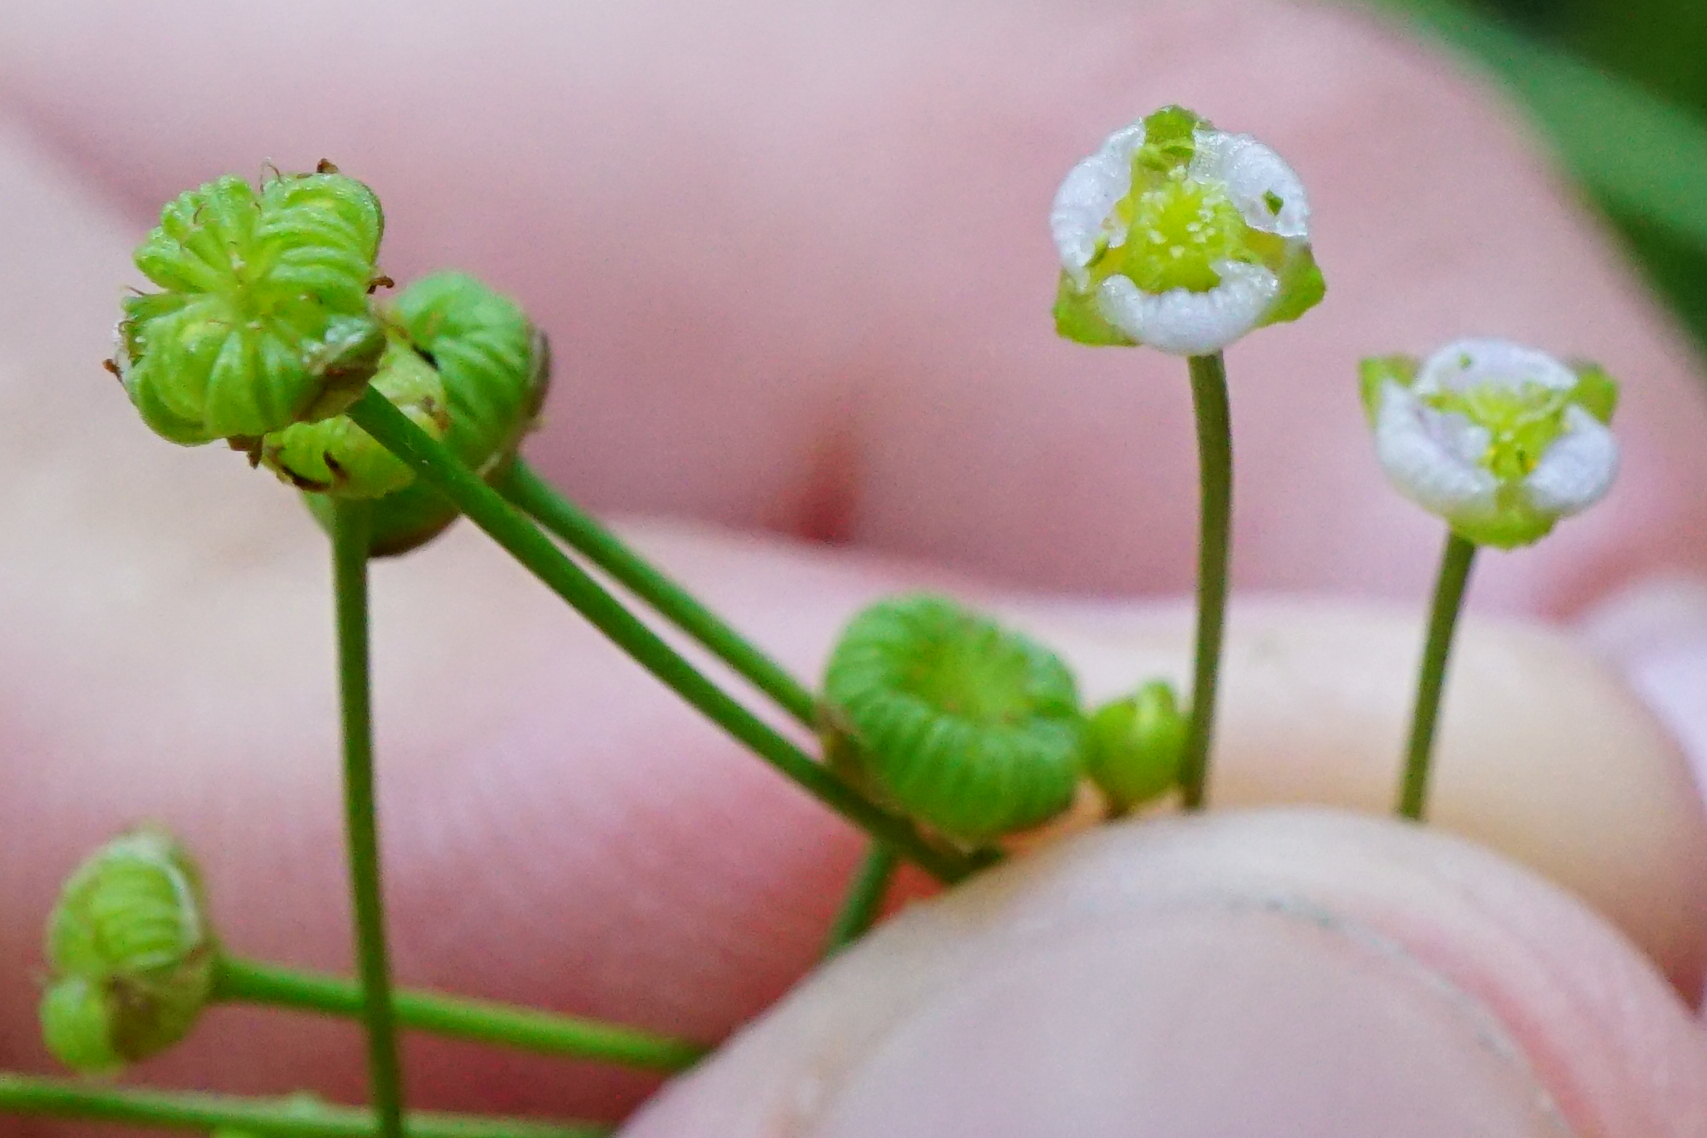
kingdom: Plantae
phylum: Tracheophyta
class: Liliopsida
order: Alismatales
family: Alismataceae
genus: Alisma
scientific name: Alisma lanceolatum
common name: Narrow-leaved water-plantain
